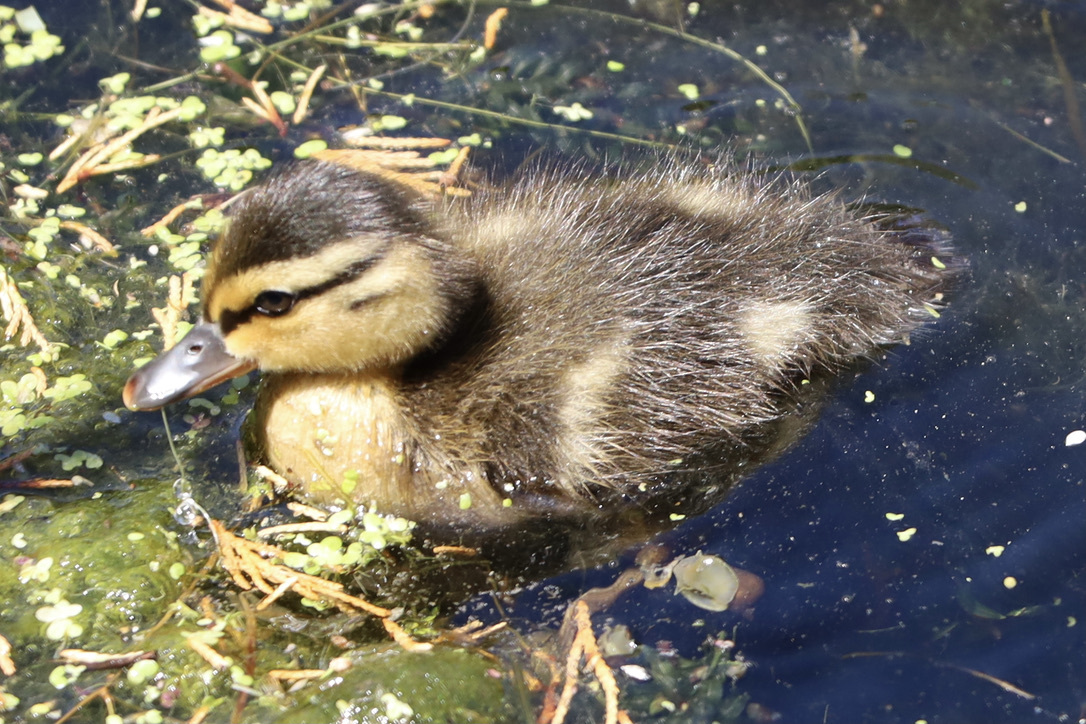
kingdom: Animalia
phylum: Chordata
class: Aves
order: Anseriformes
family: Anatidae
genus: Anas
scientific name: Anas platyrhynchos
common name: Mallard
